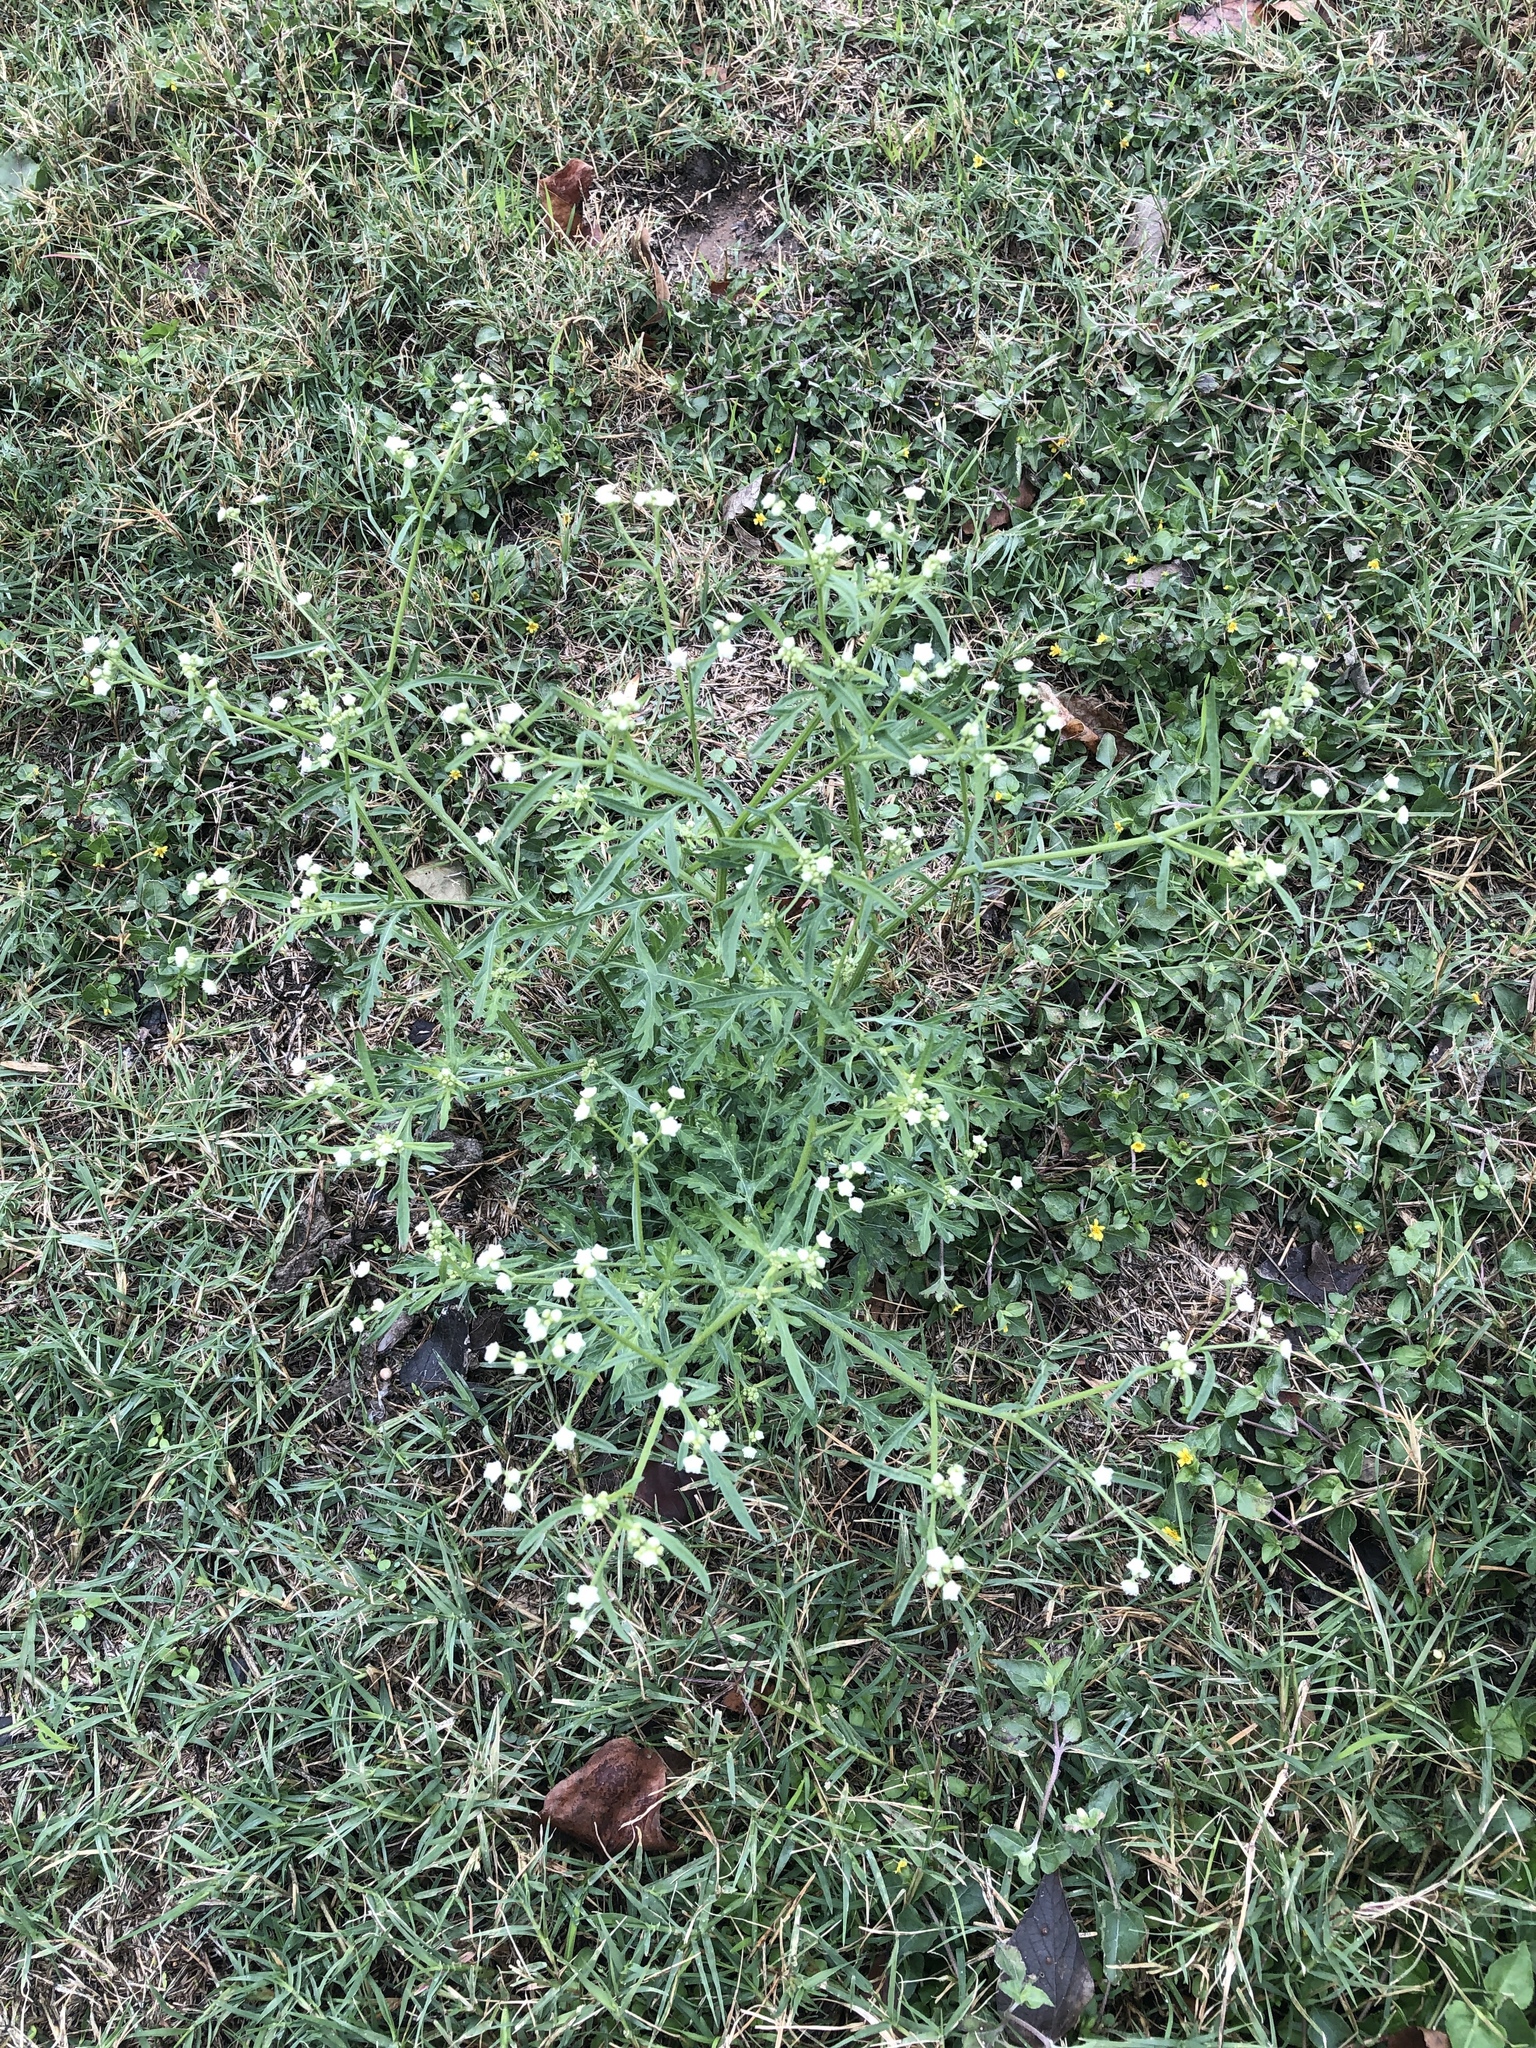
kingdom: Plantae
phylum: Tracheophyta
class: Magnoliopsida
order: Asterales
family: Asteraceae
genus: Parthenium
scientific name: Parthenium hysterophorus
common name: Santa maria feverfew
